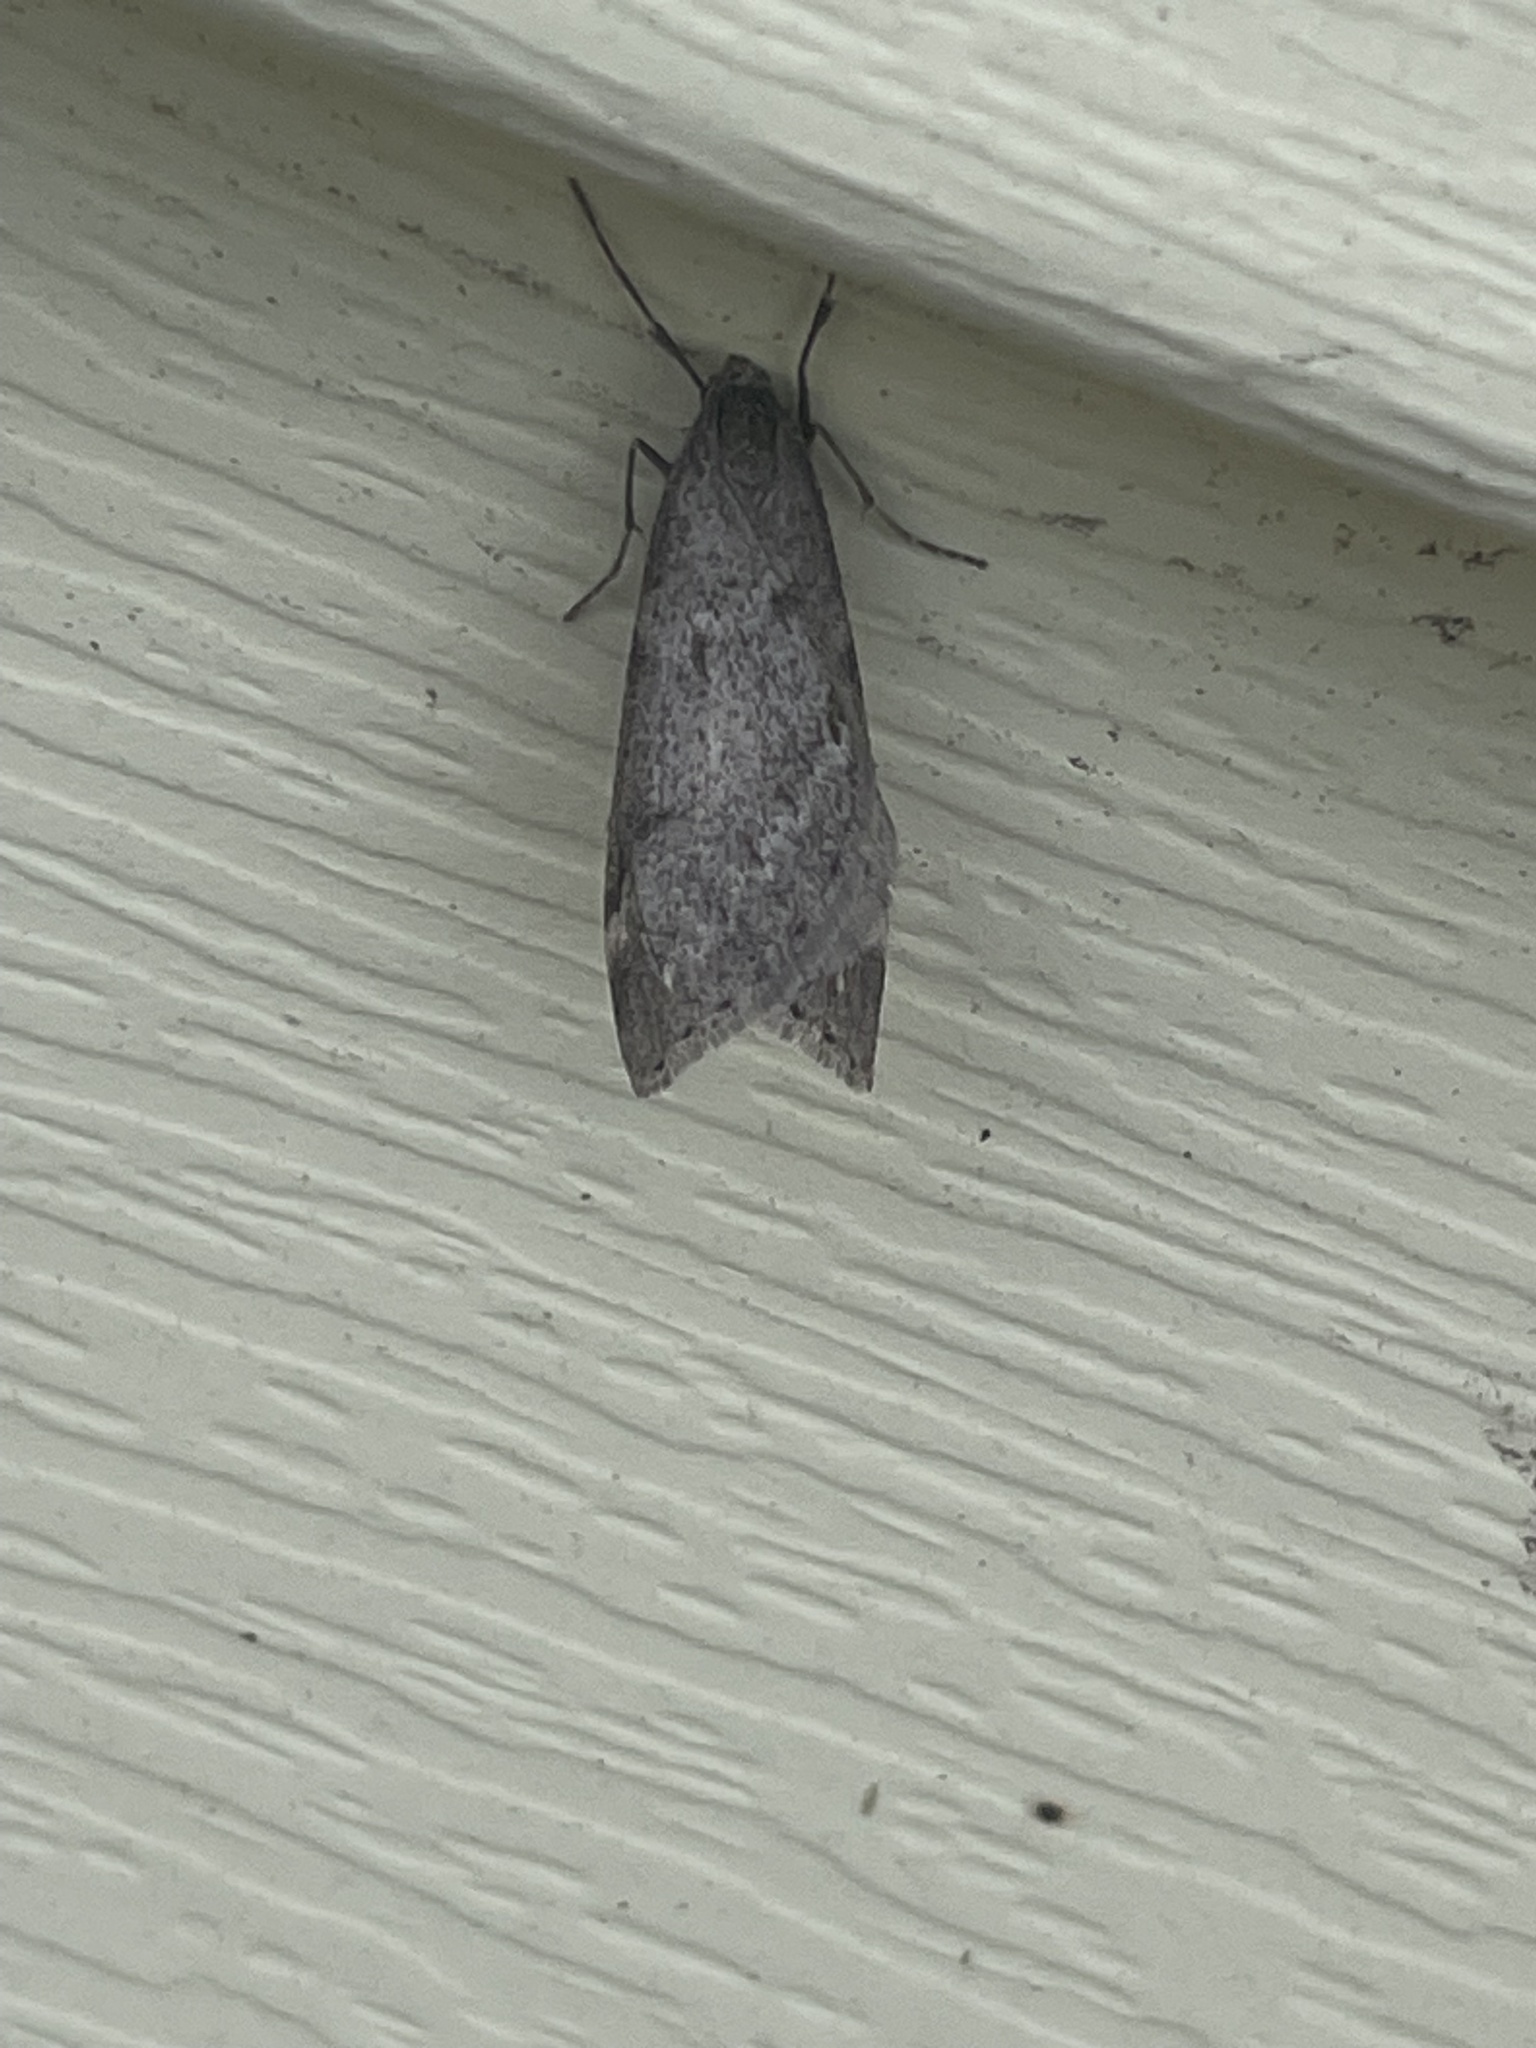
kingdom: Animalia
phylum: Arthropoda
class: Insecta
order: Lepidoptera
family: Geometridae
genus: Alsophila
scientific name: Alsophila pometaria
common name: Fall cankerworm
